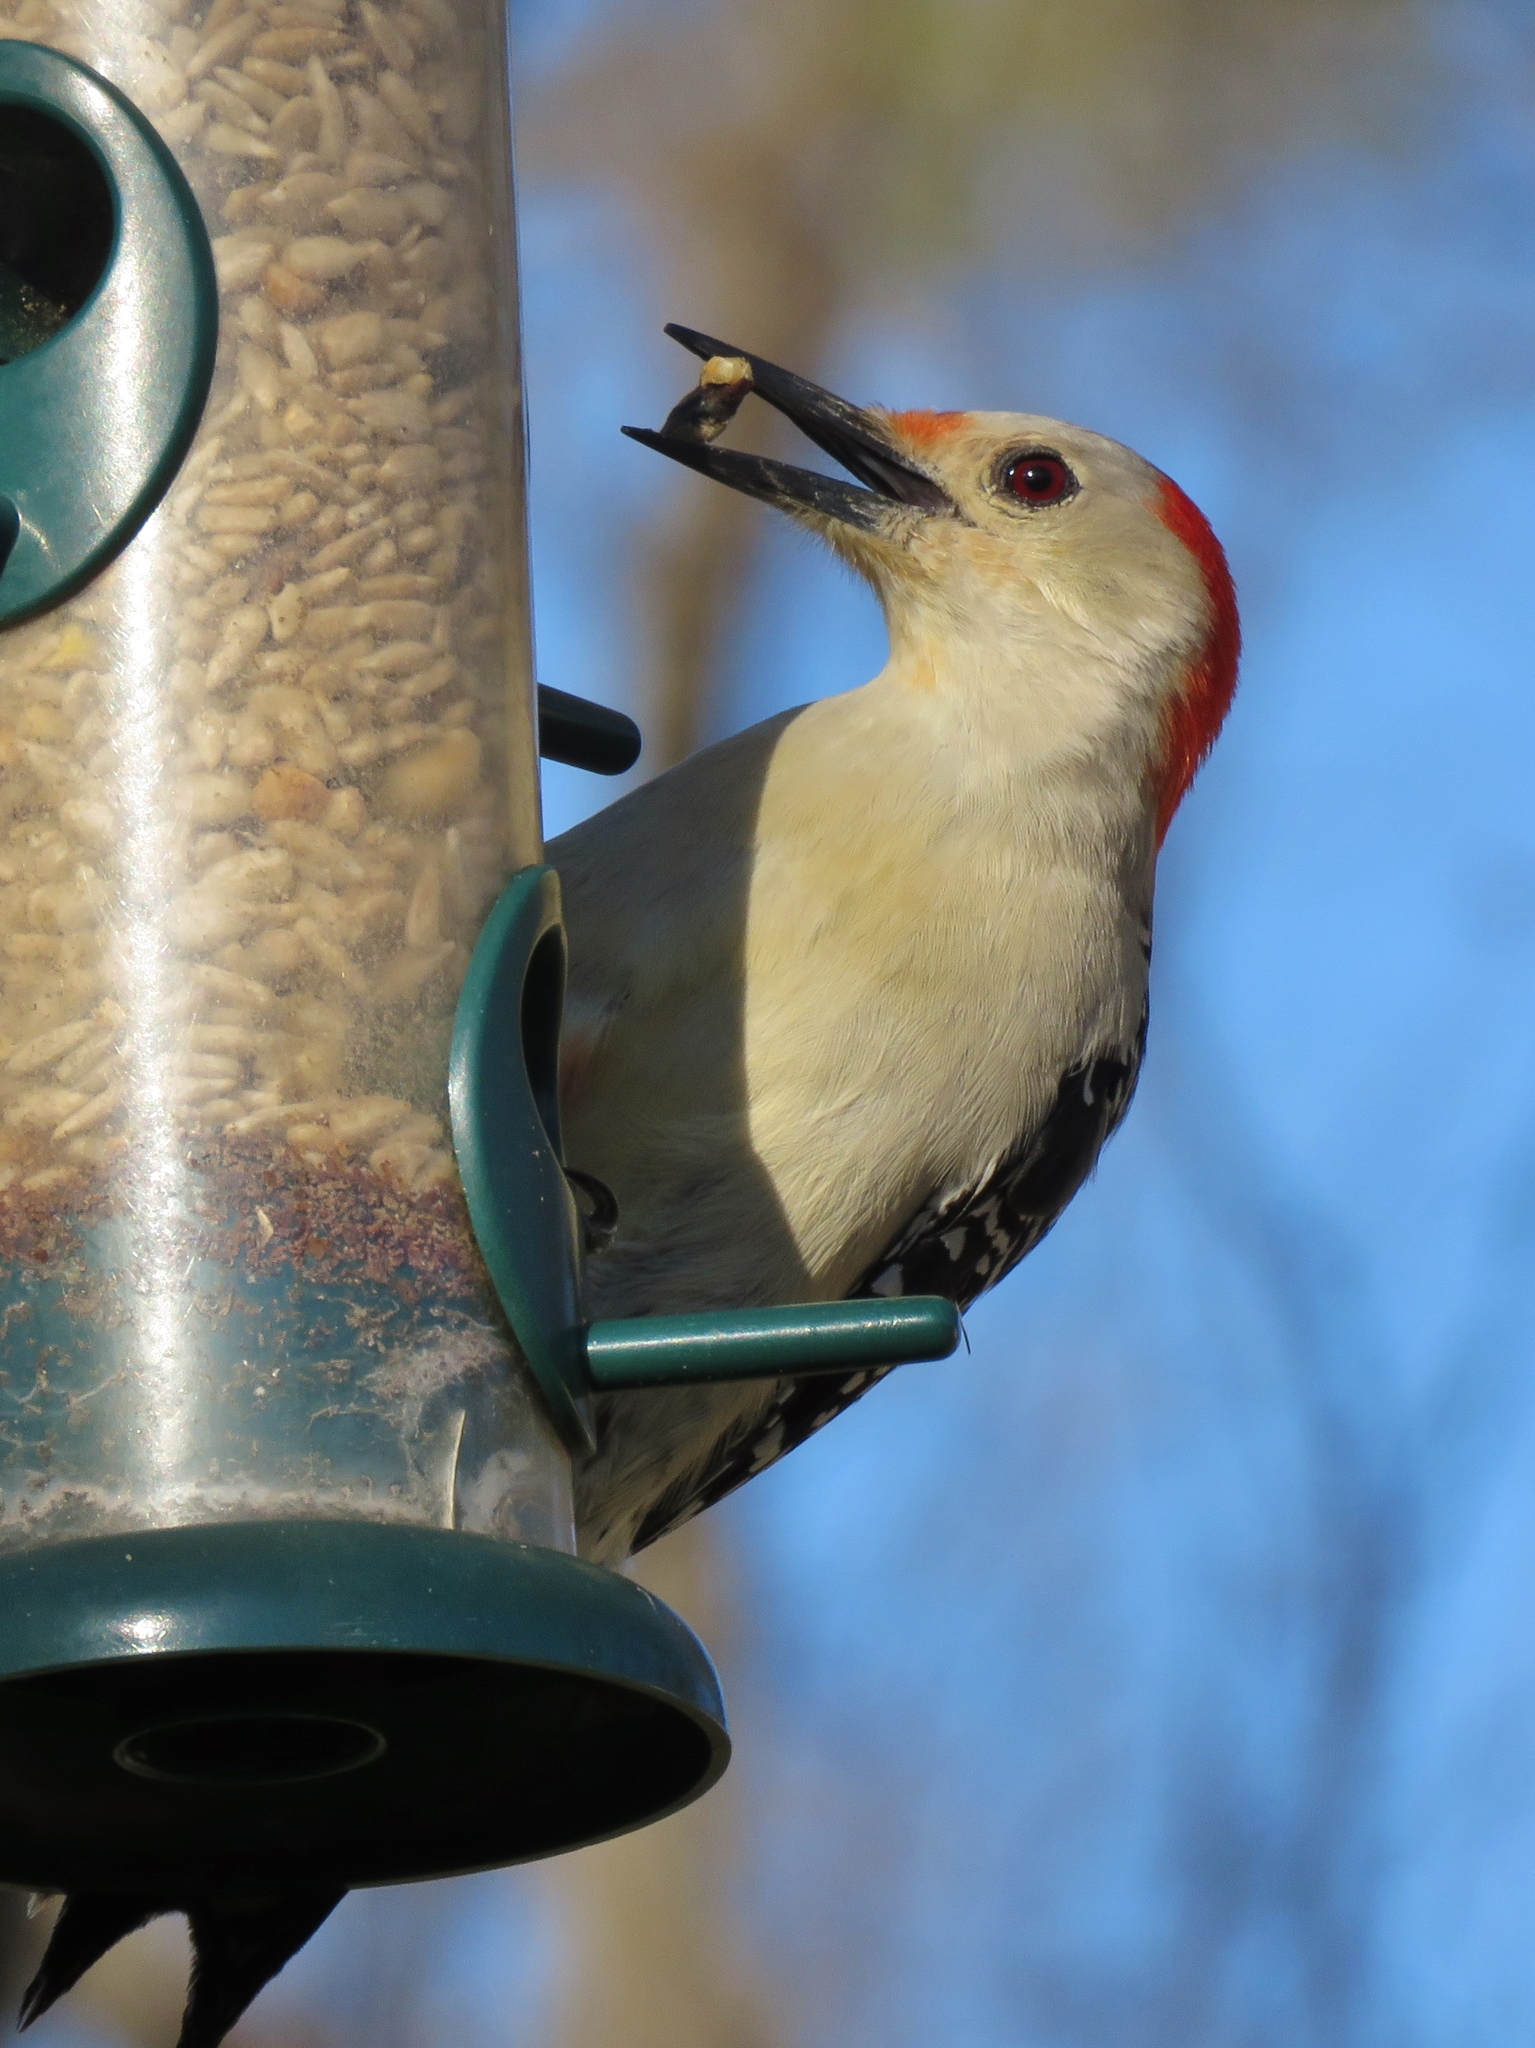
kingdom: Animalia
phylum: Chordata
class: Aves
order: Piciformes
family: Picidae
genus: Melanerpes
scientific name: Melanerpes carolinus
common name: Red-bellied woodpecker
